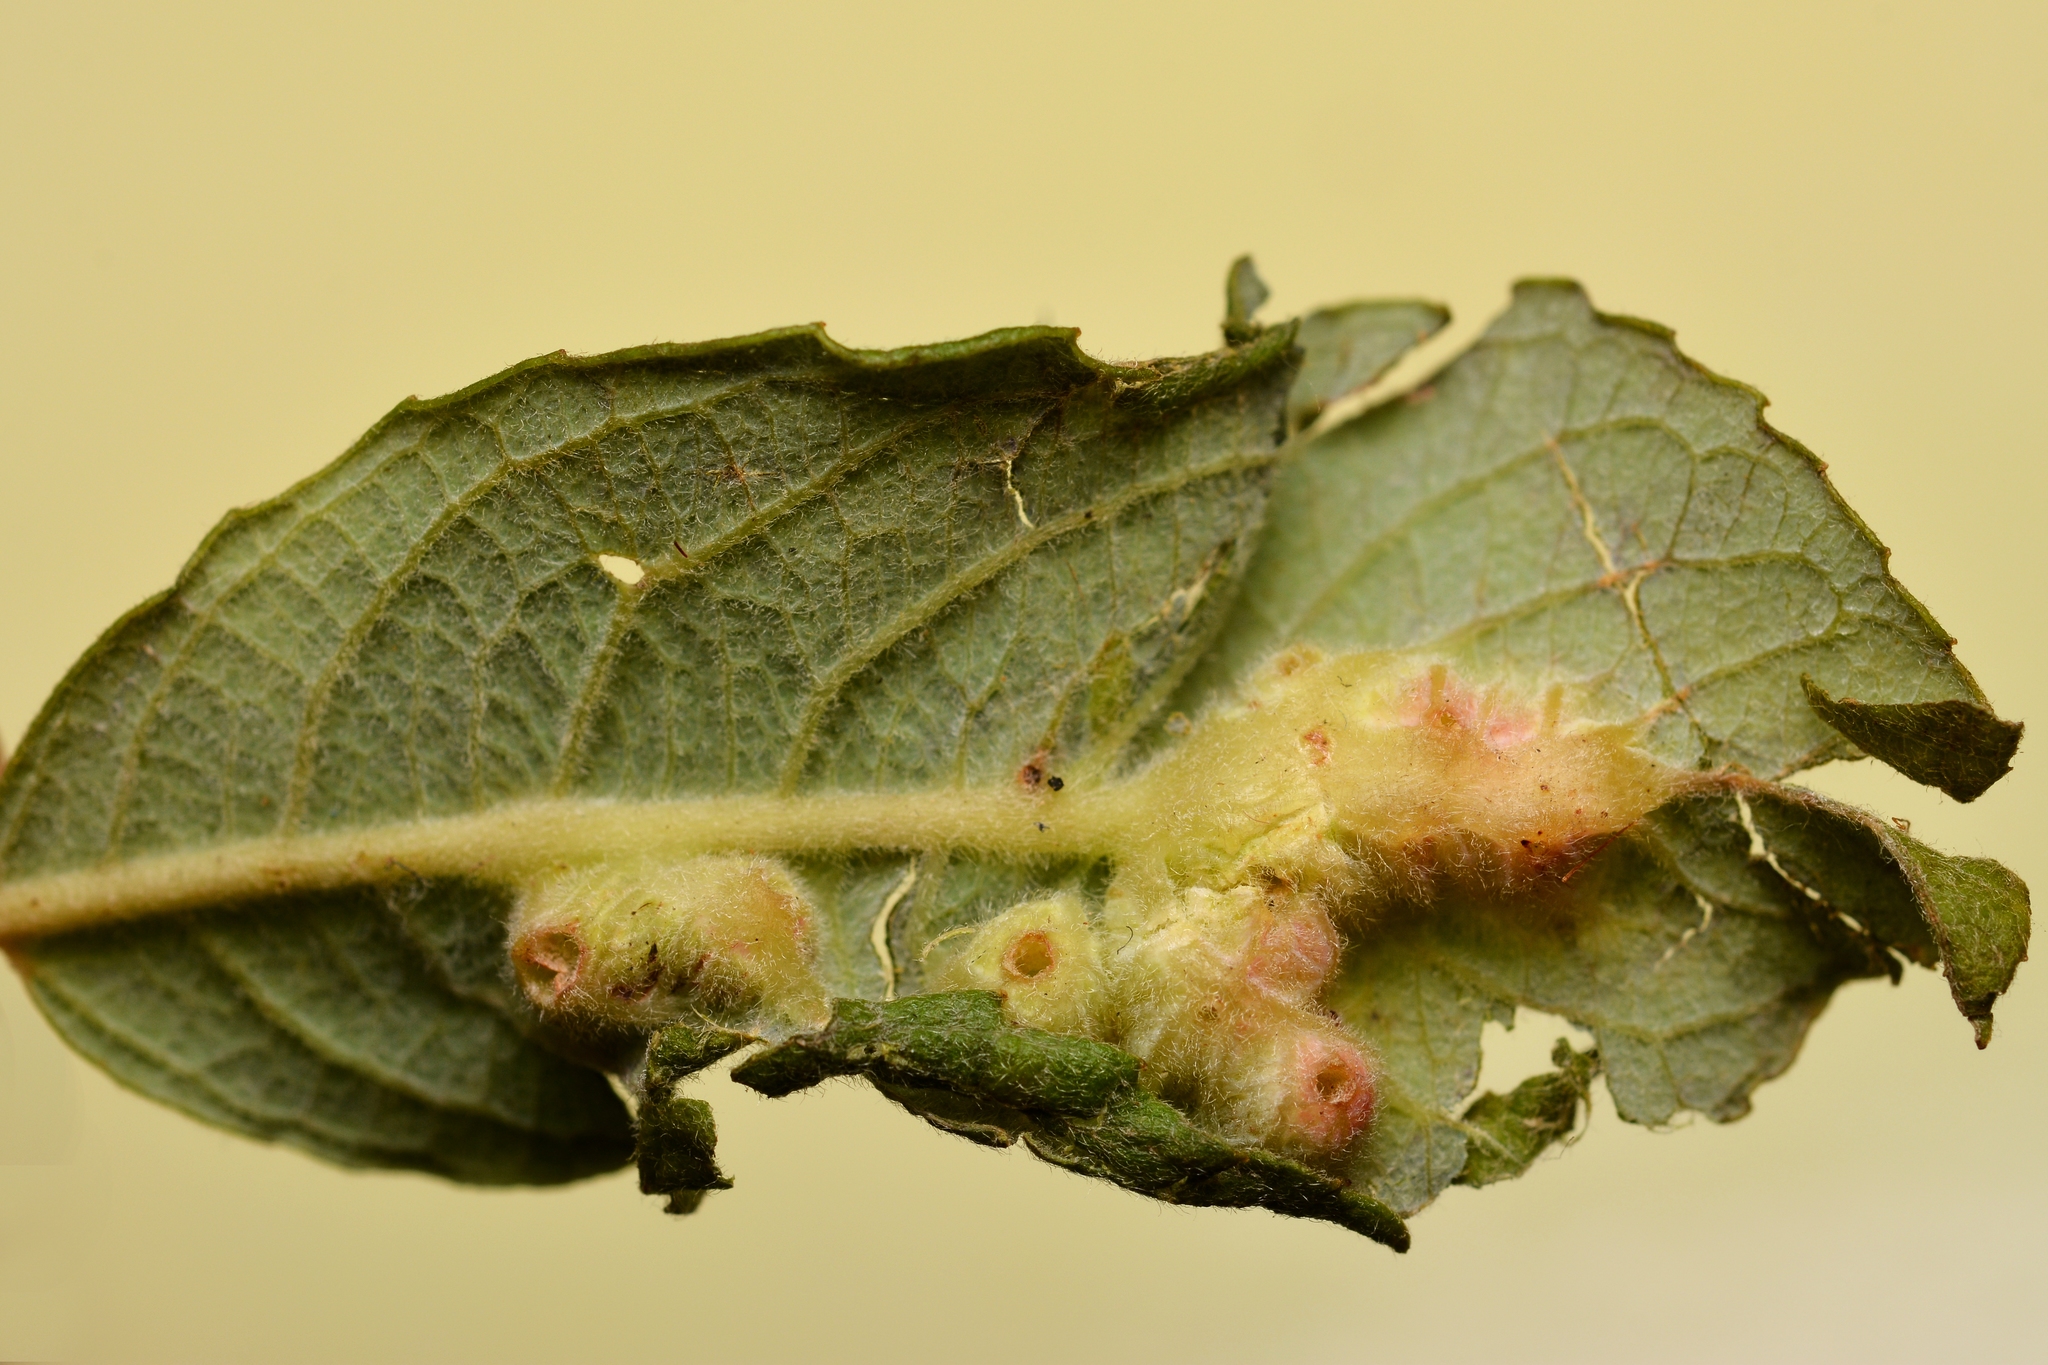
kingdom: Animalia
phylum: Arthropoda
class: Insecta
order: Diptera
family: Cecidomyiidae
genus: Iteomyia
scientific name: Iteomyia major
